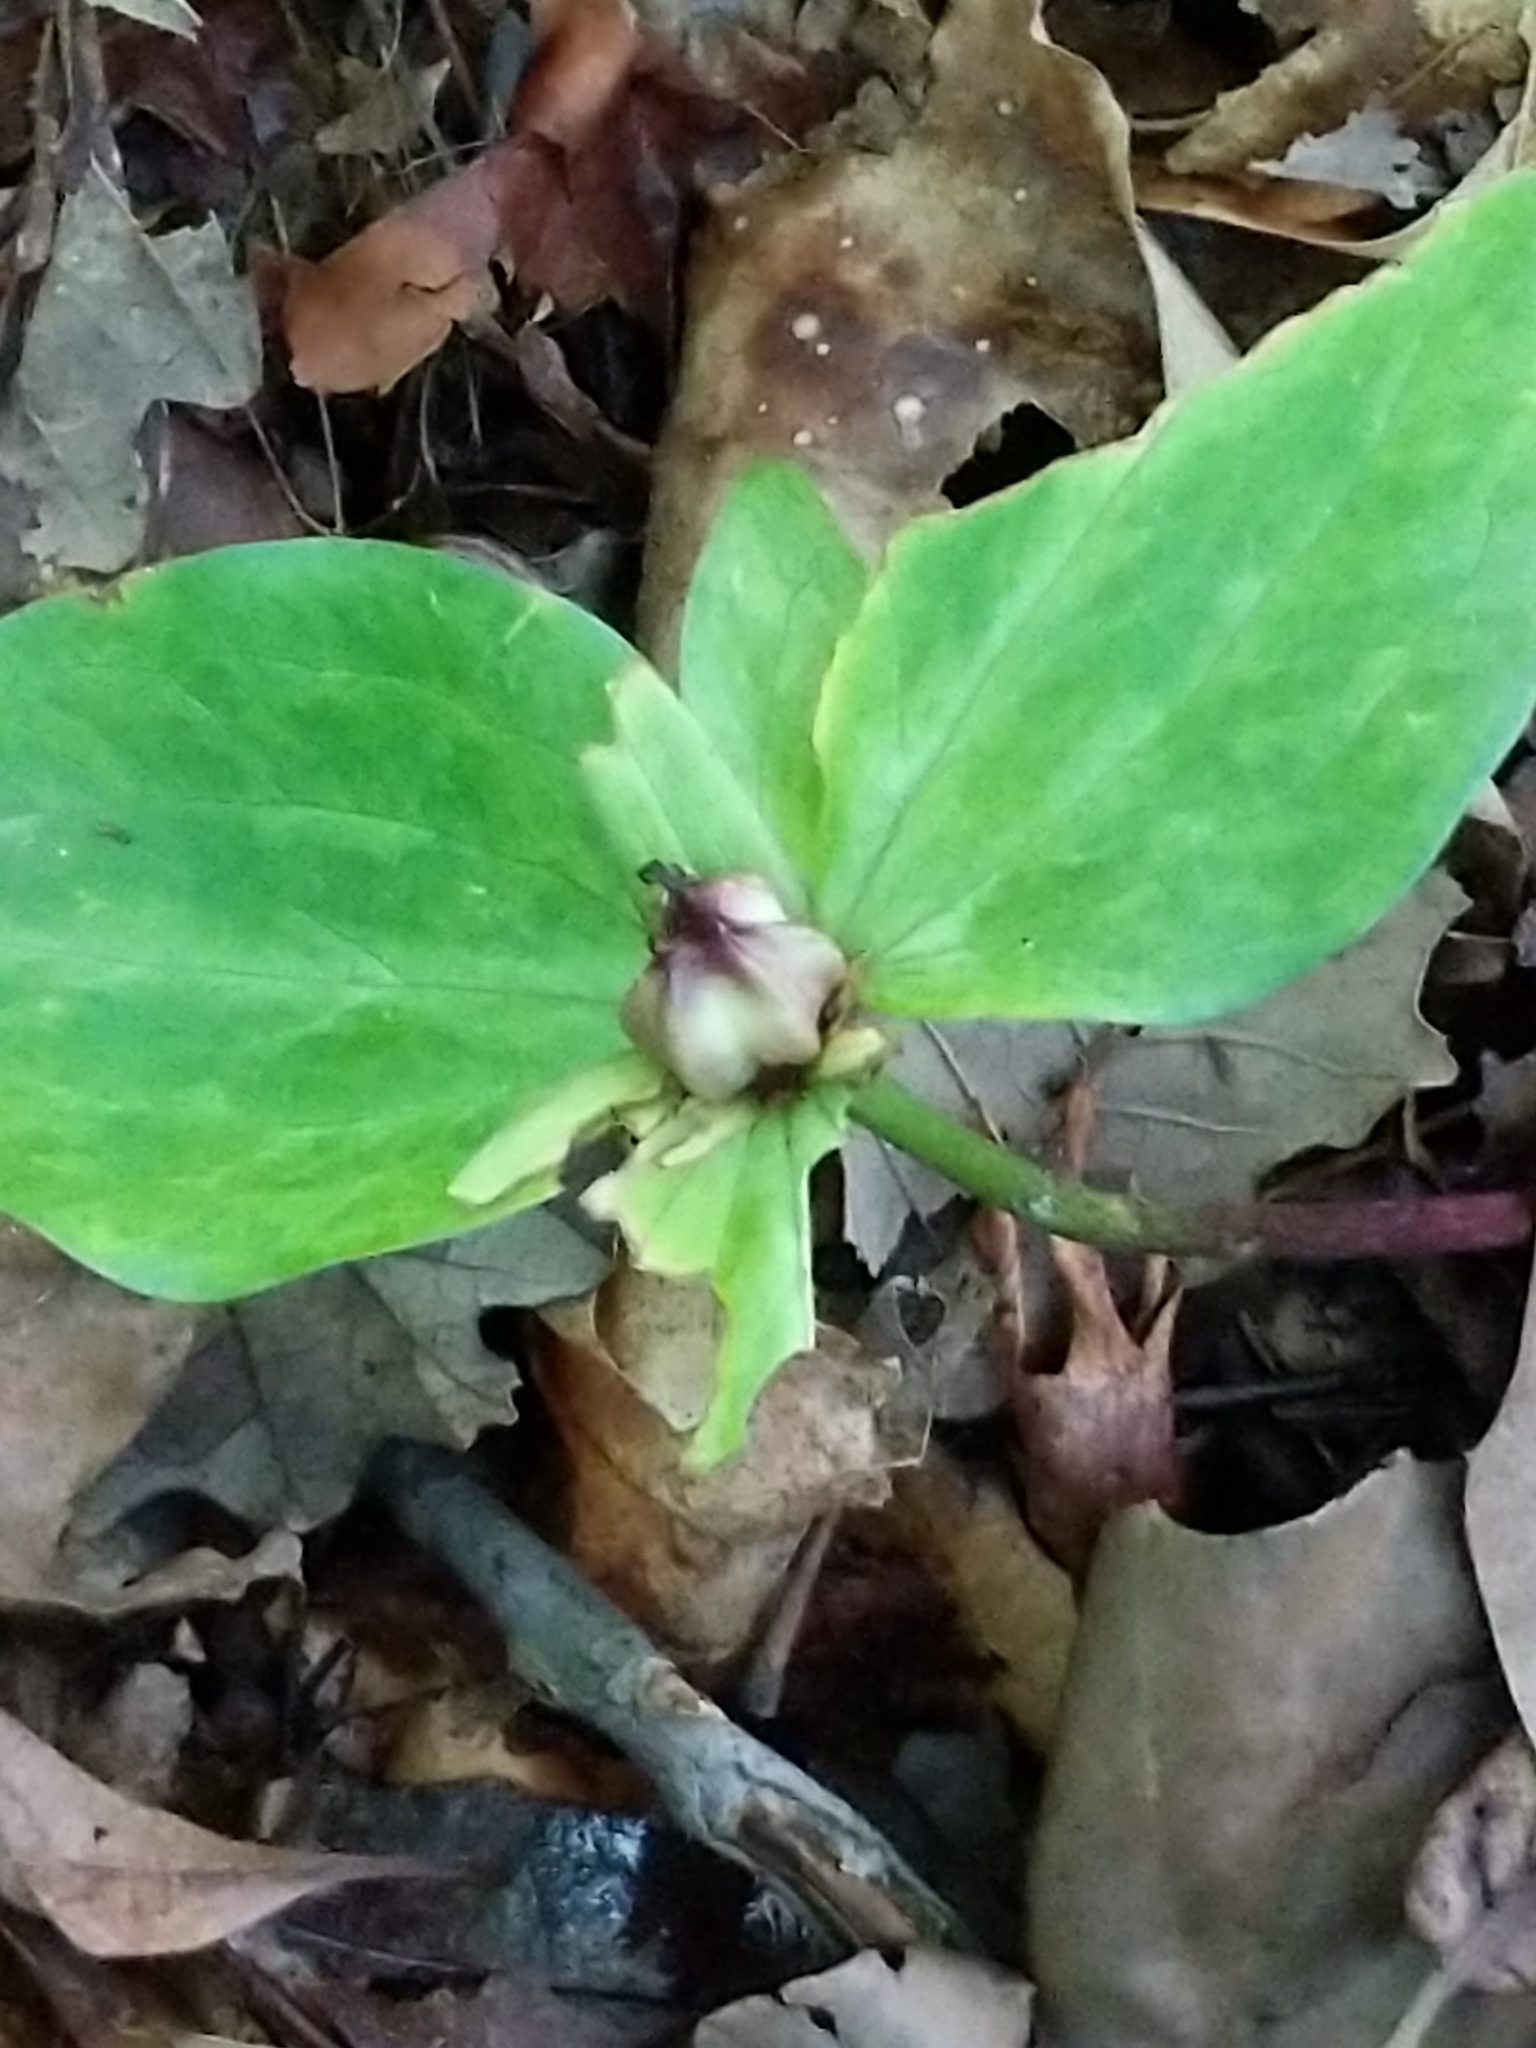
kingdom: Plantae
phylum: Tracheophyta
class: Liliopsida
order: Liliales
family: Melanthiaceae
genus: Trillium
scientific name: Trillium sessile
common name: Sessile trillium
